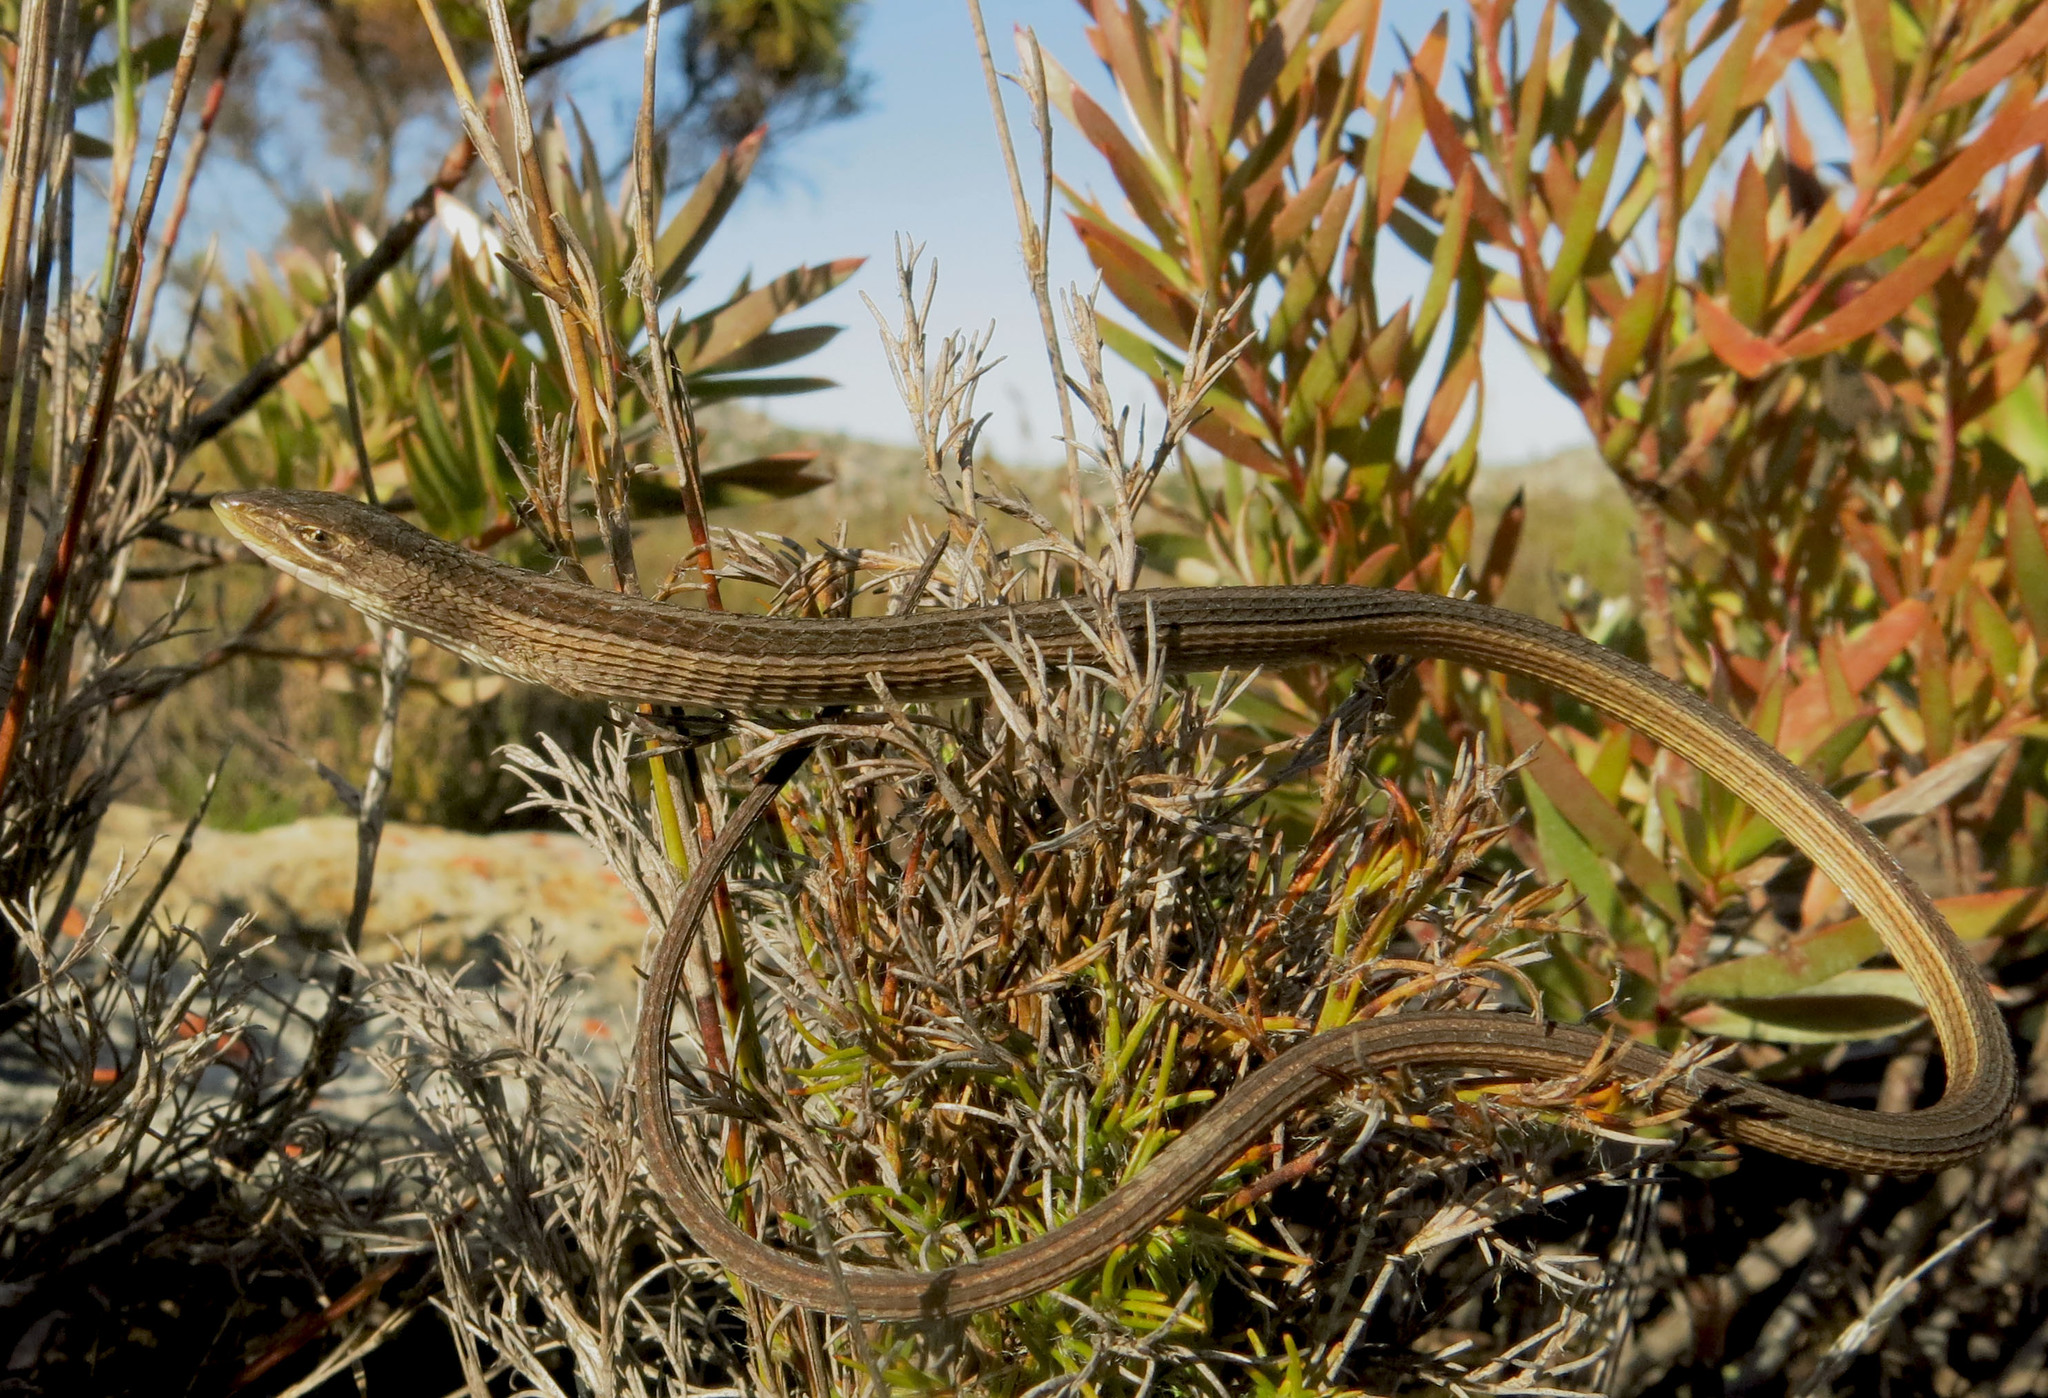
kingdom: Animalia
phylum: Chordata
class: Squamata
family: Cordylidae
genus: Chamaesaura
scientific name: Chamaesaura anguina
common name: Cape snake lizard
